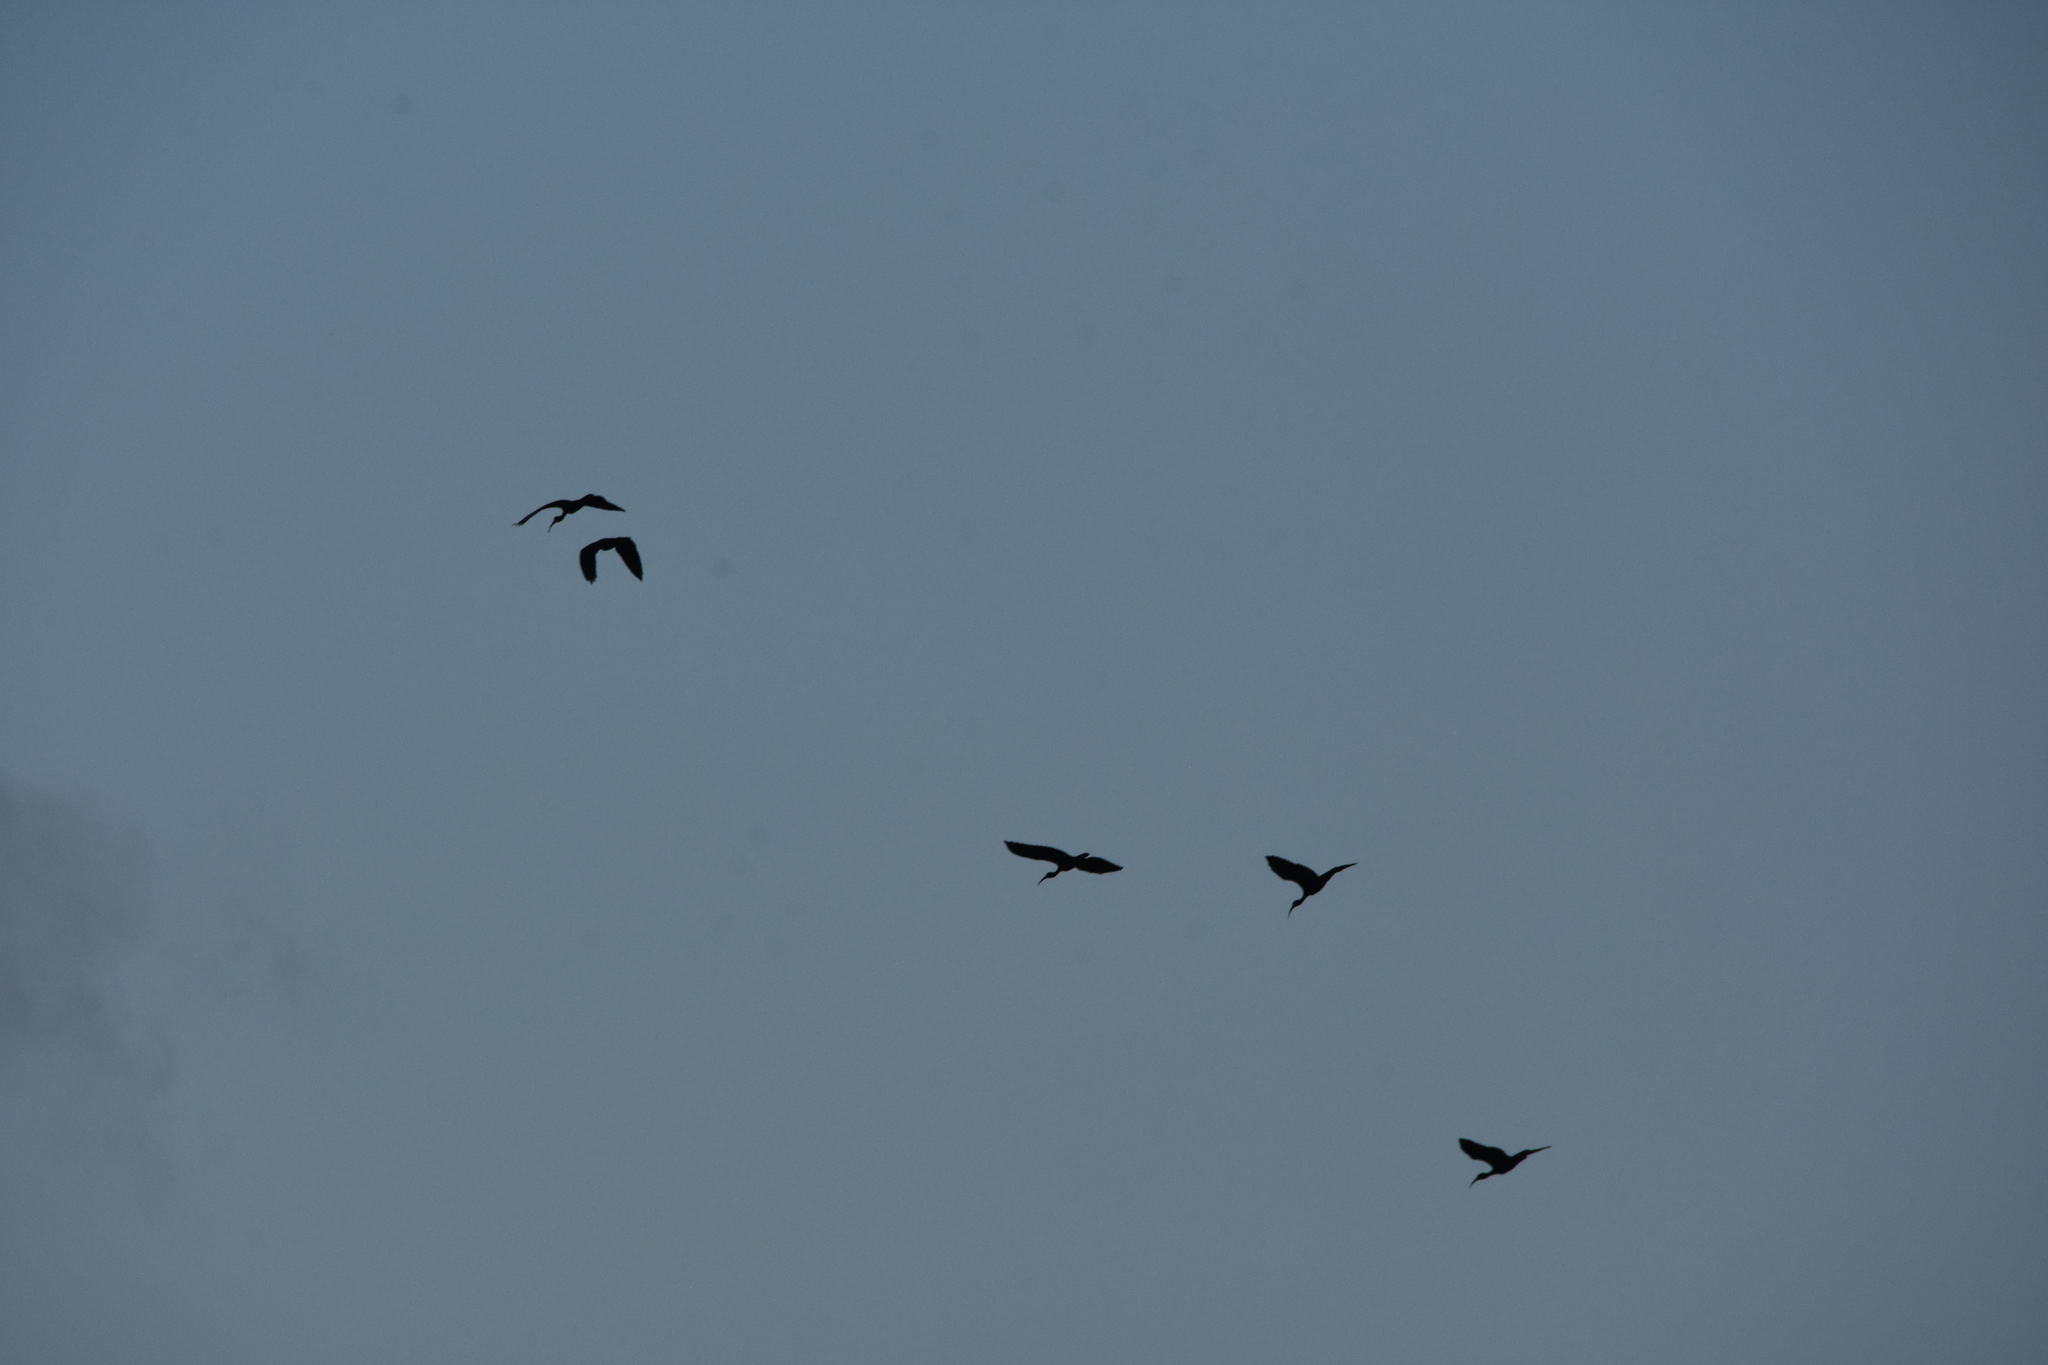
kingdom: Animalia
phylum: Chordata
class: Aves
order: Pelecaniformes
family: Threskiornithidae
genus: Phimosus
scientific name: Phimosus infuscatus
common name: Bare-faced ibis
